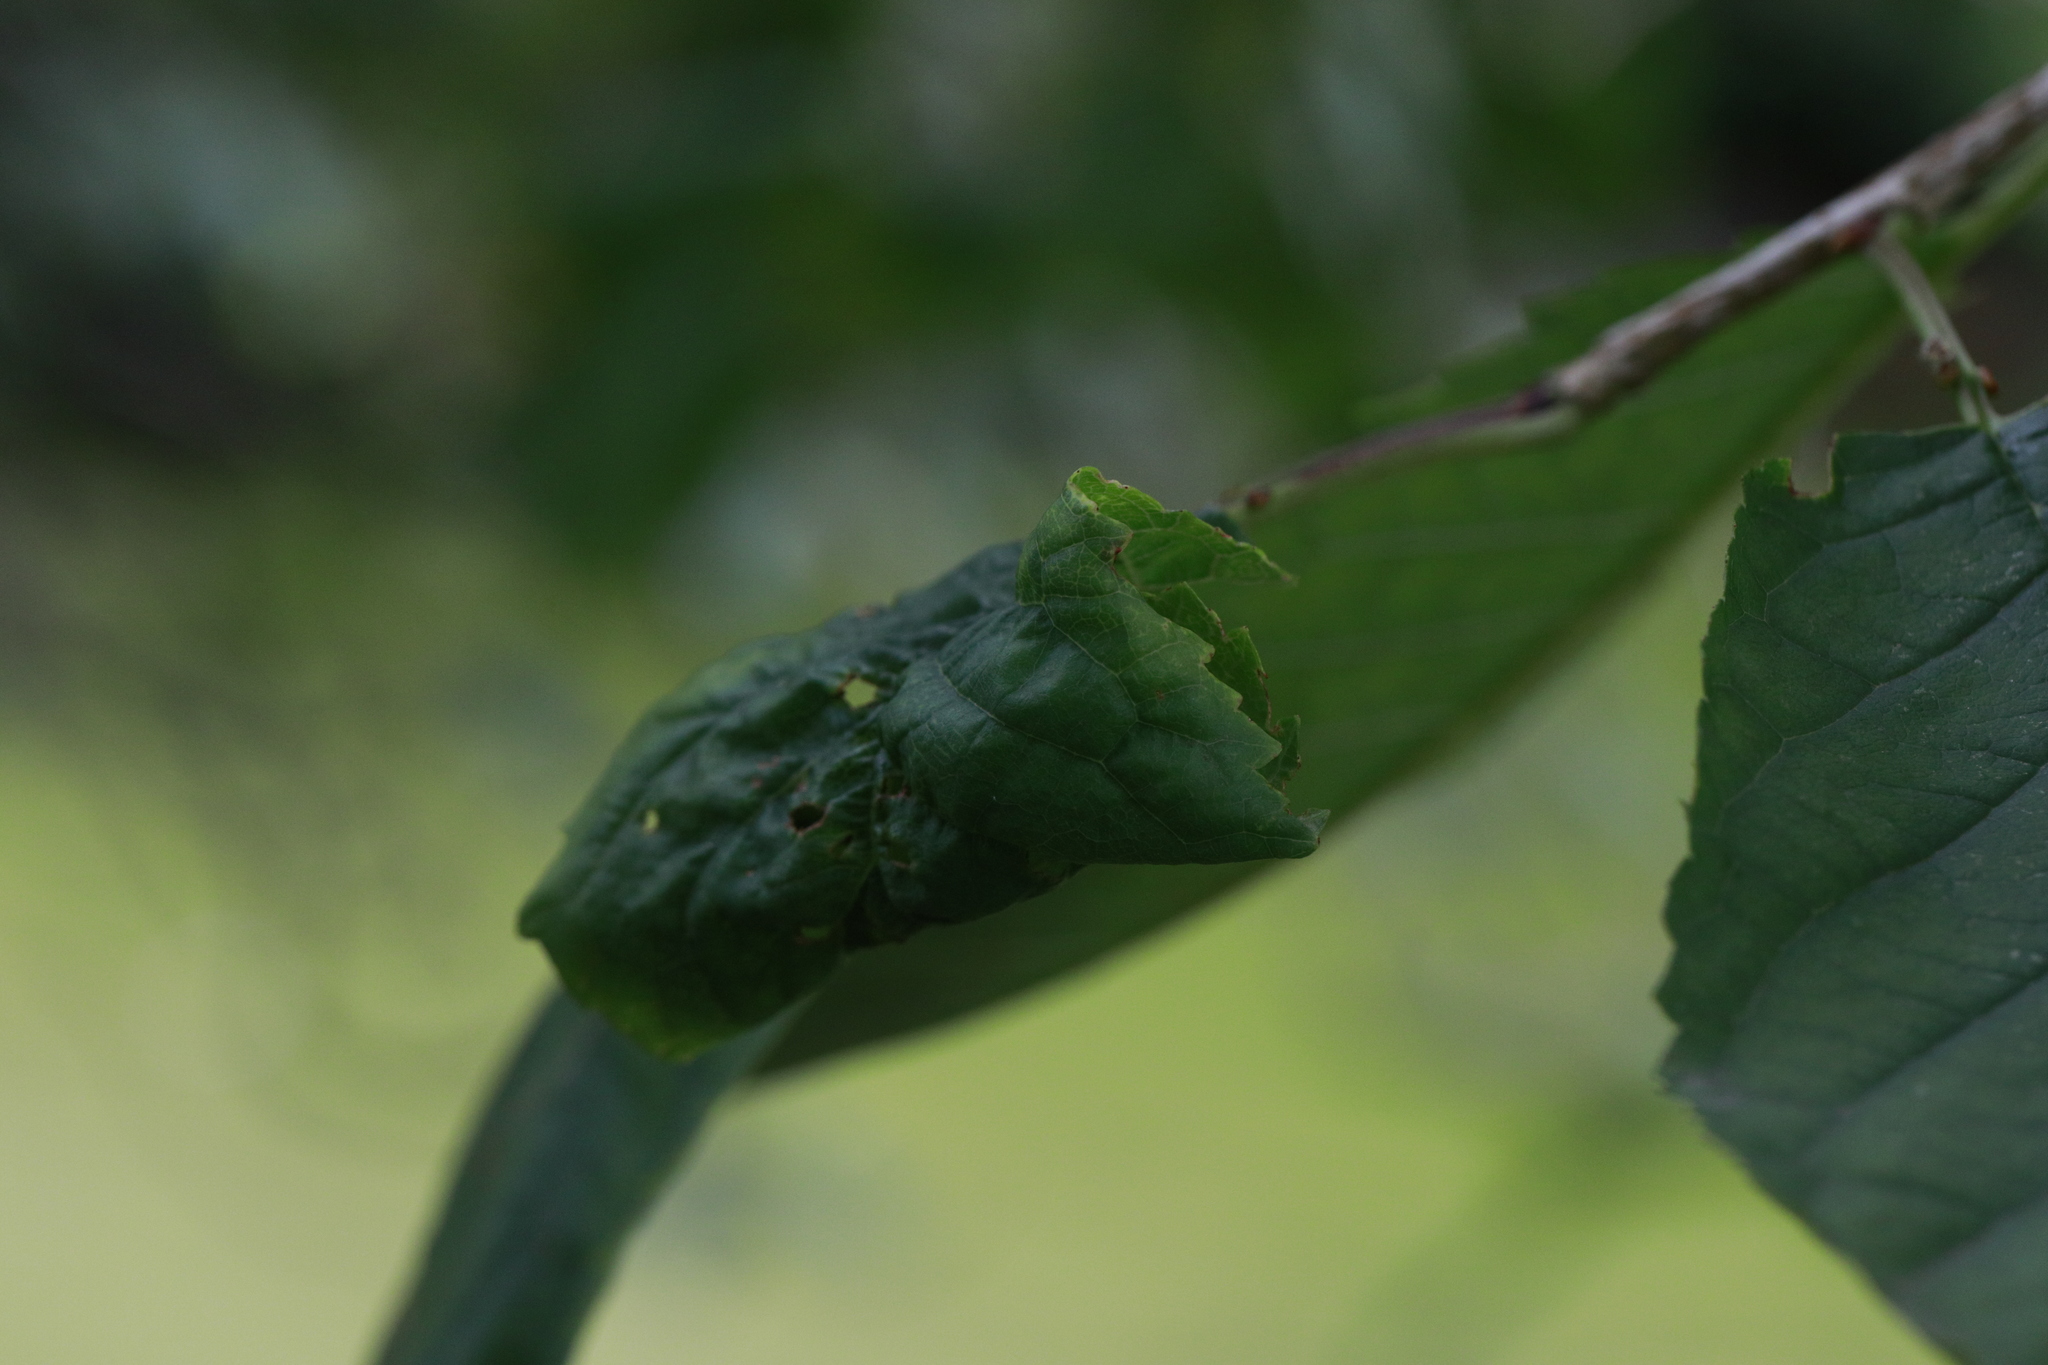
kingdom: Animalia
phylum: Arthropoda
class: Insecta
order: Hemiptera
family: Aphididae
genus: Myzus
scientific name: Myzus cerasi
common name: Black cherry aphid
